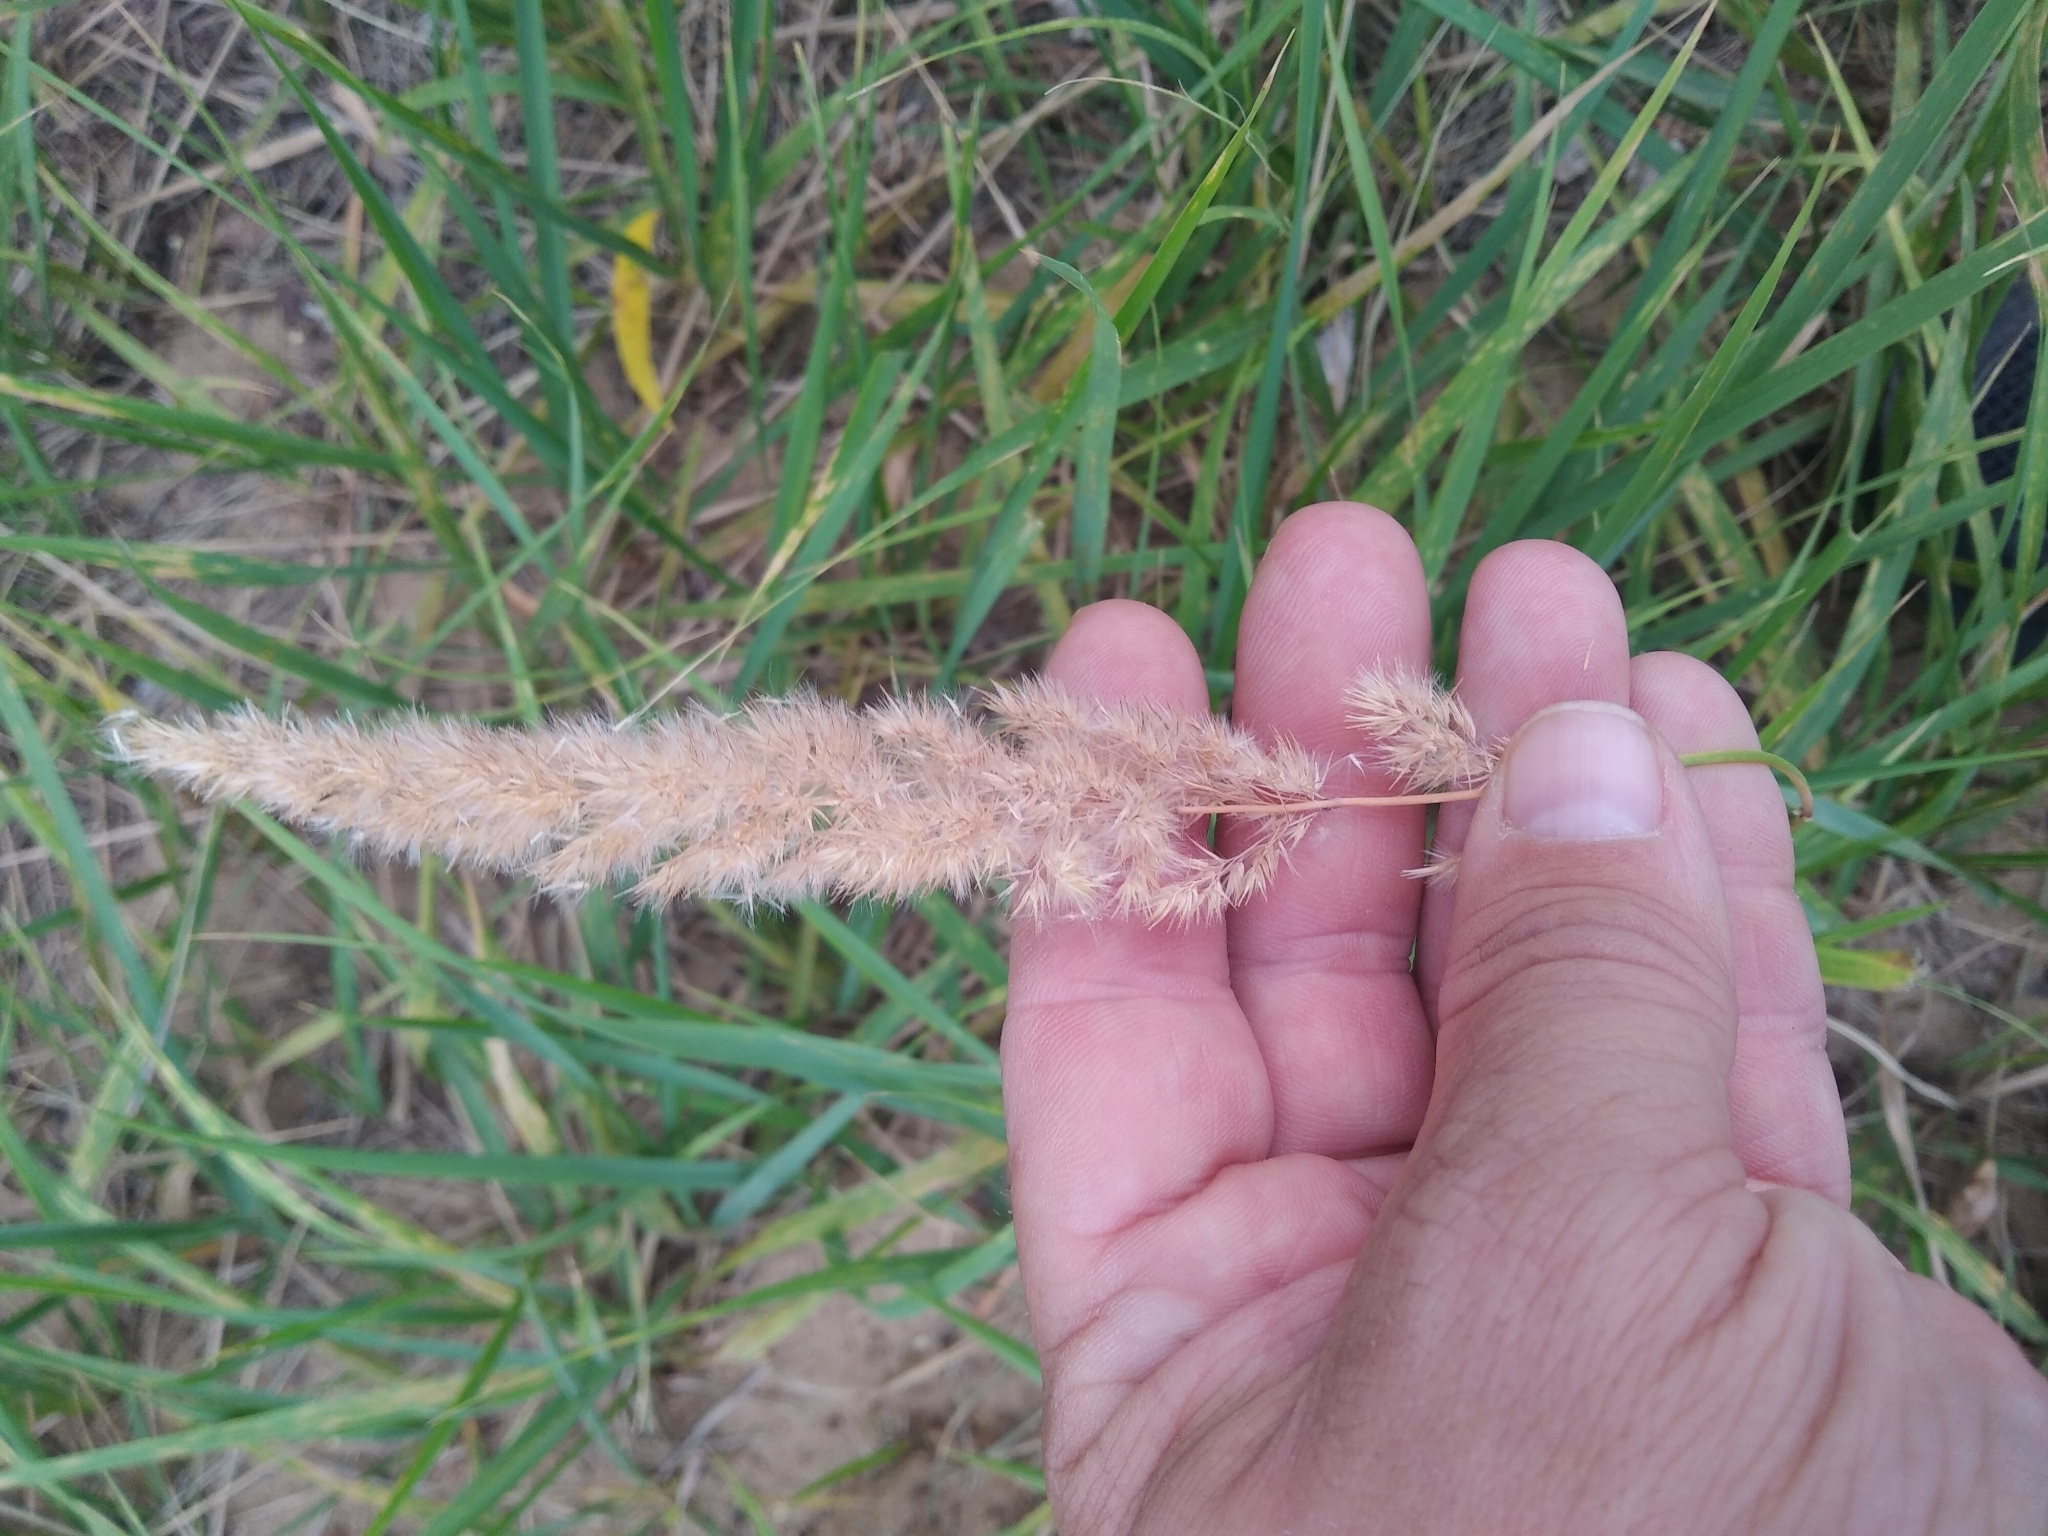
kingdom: Plantae
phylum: Tracheophyta
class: Liliopsida
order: Poales
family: Poaceae
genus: Calamagrostis
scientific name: Calamagrostis epigejos
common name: Wood small-reed
